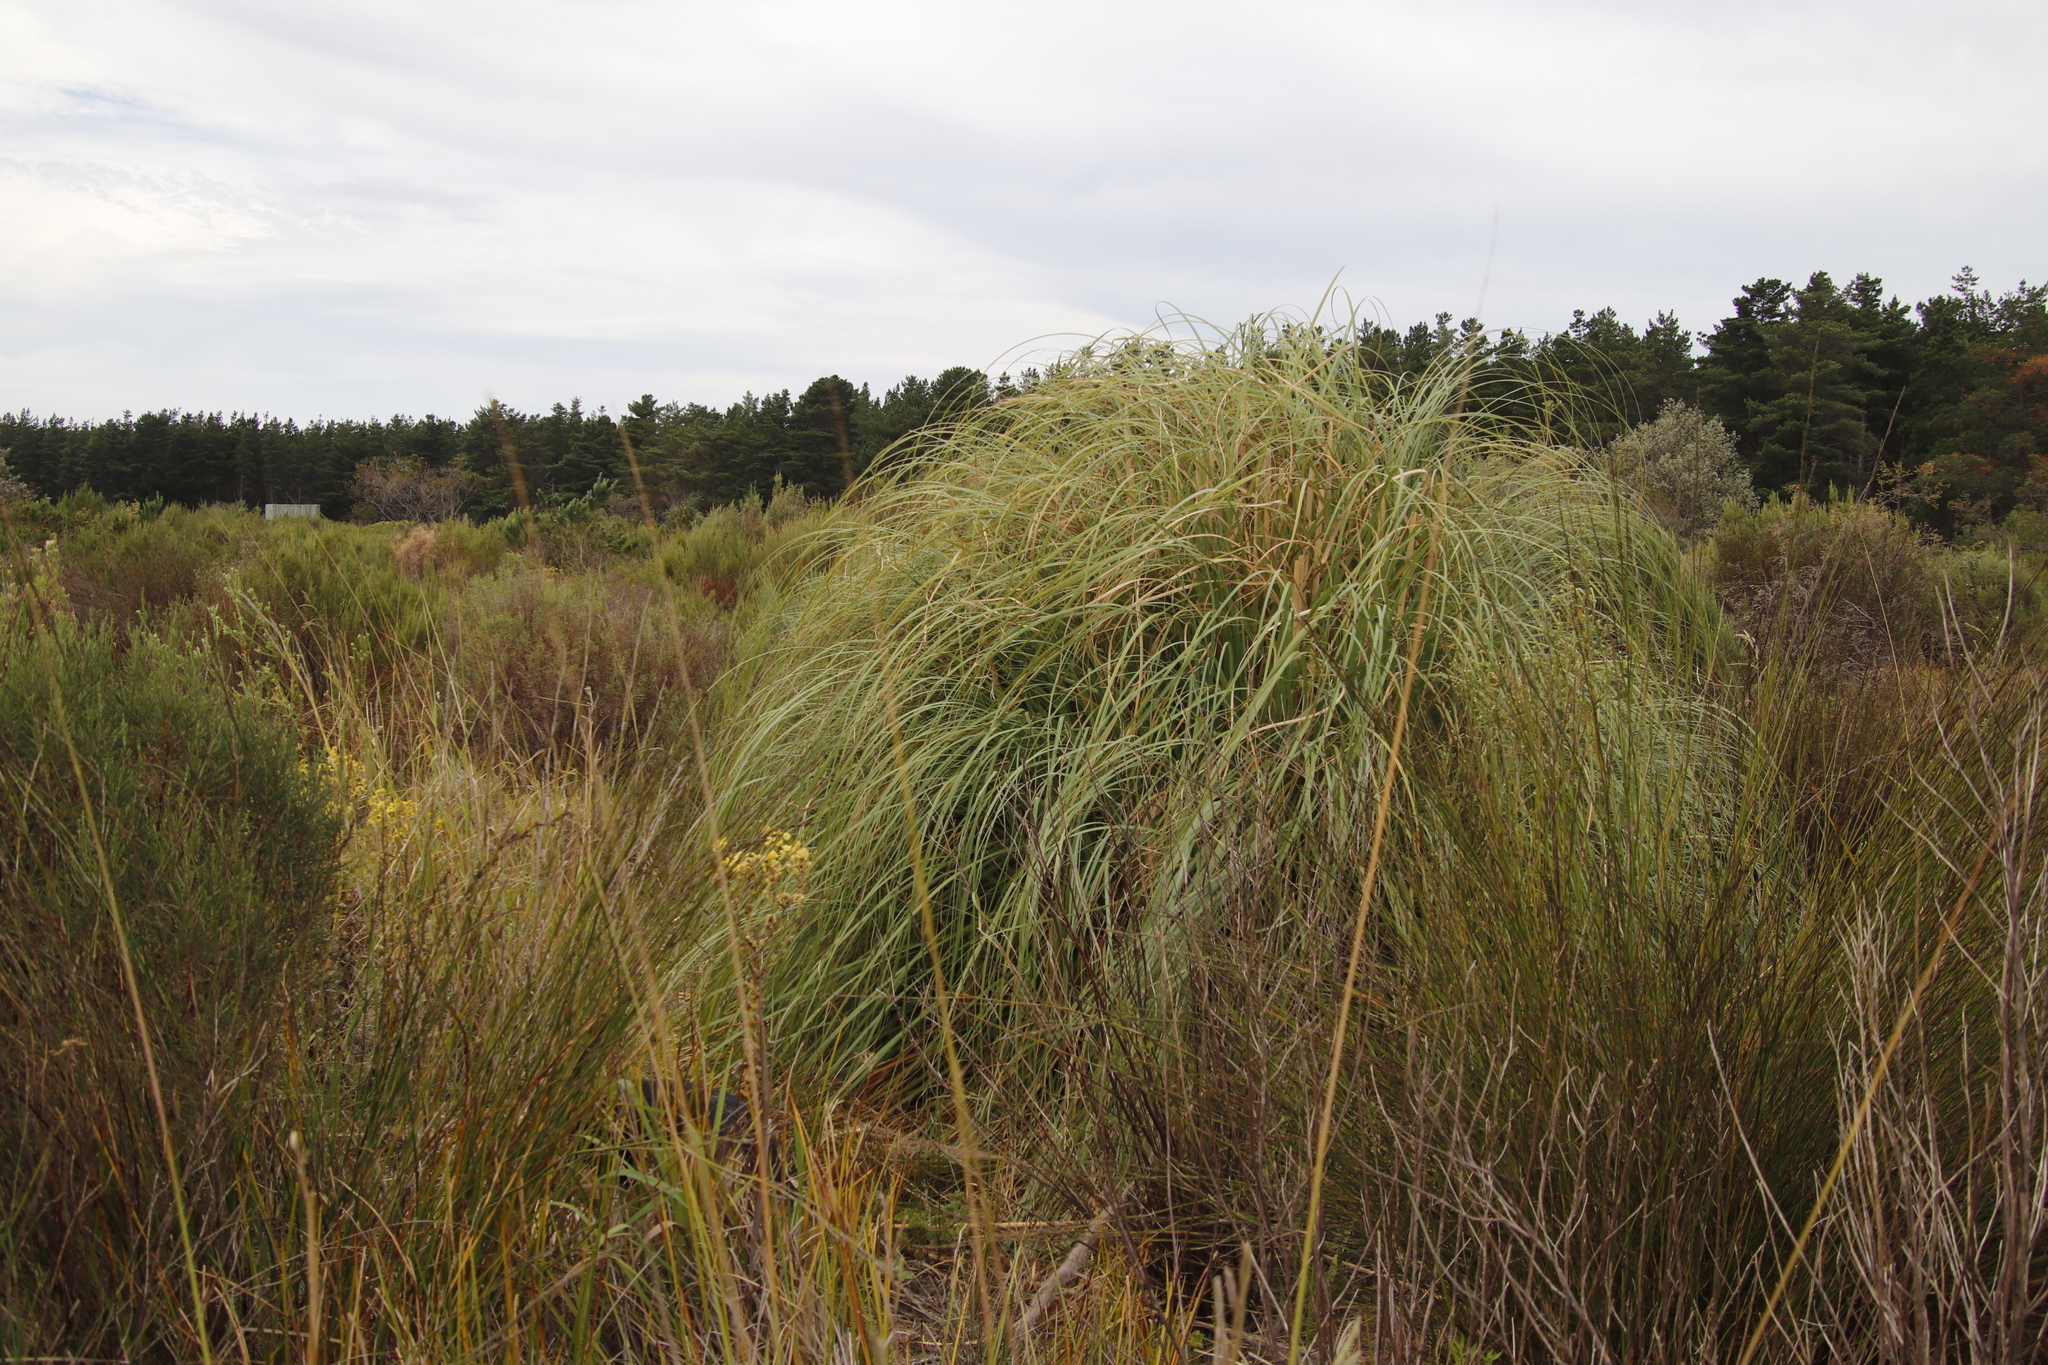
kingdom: Plantae
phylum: Tracheophyta
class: Liliopsida
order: Poales
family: Poaceae
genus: Cortaderia
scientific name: Cortaderia selloana
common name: Uruguayan pampas grass
